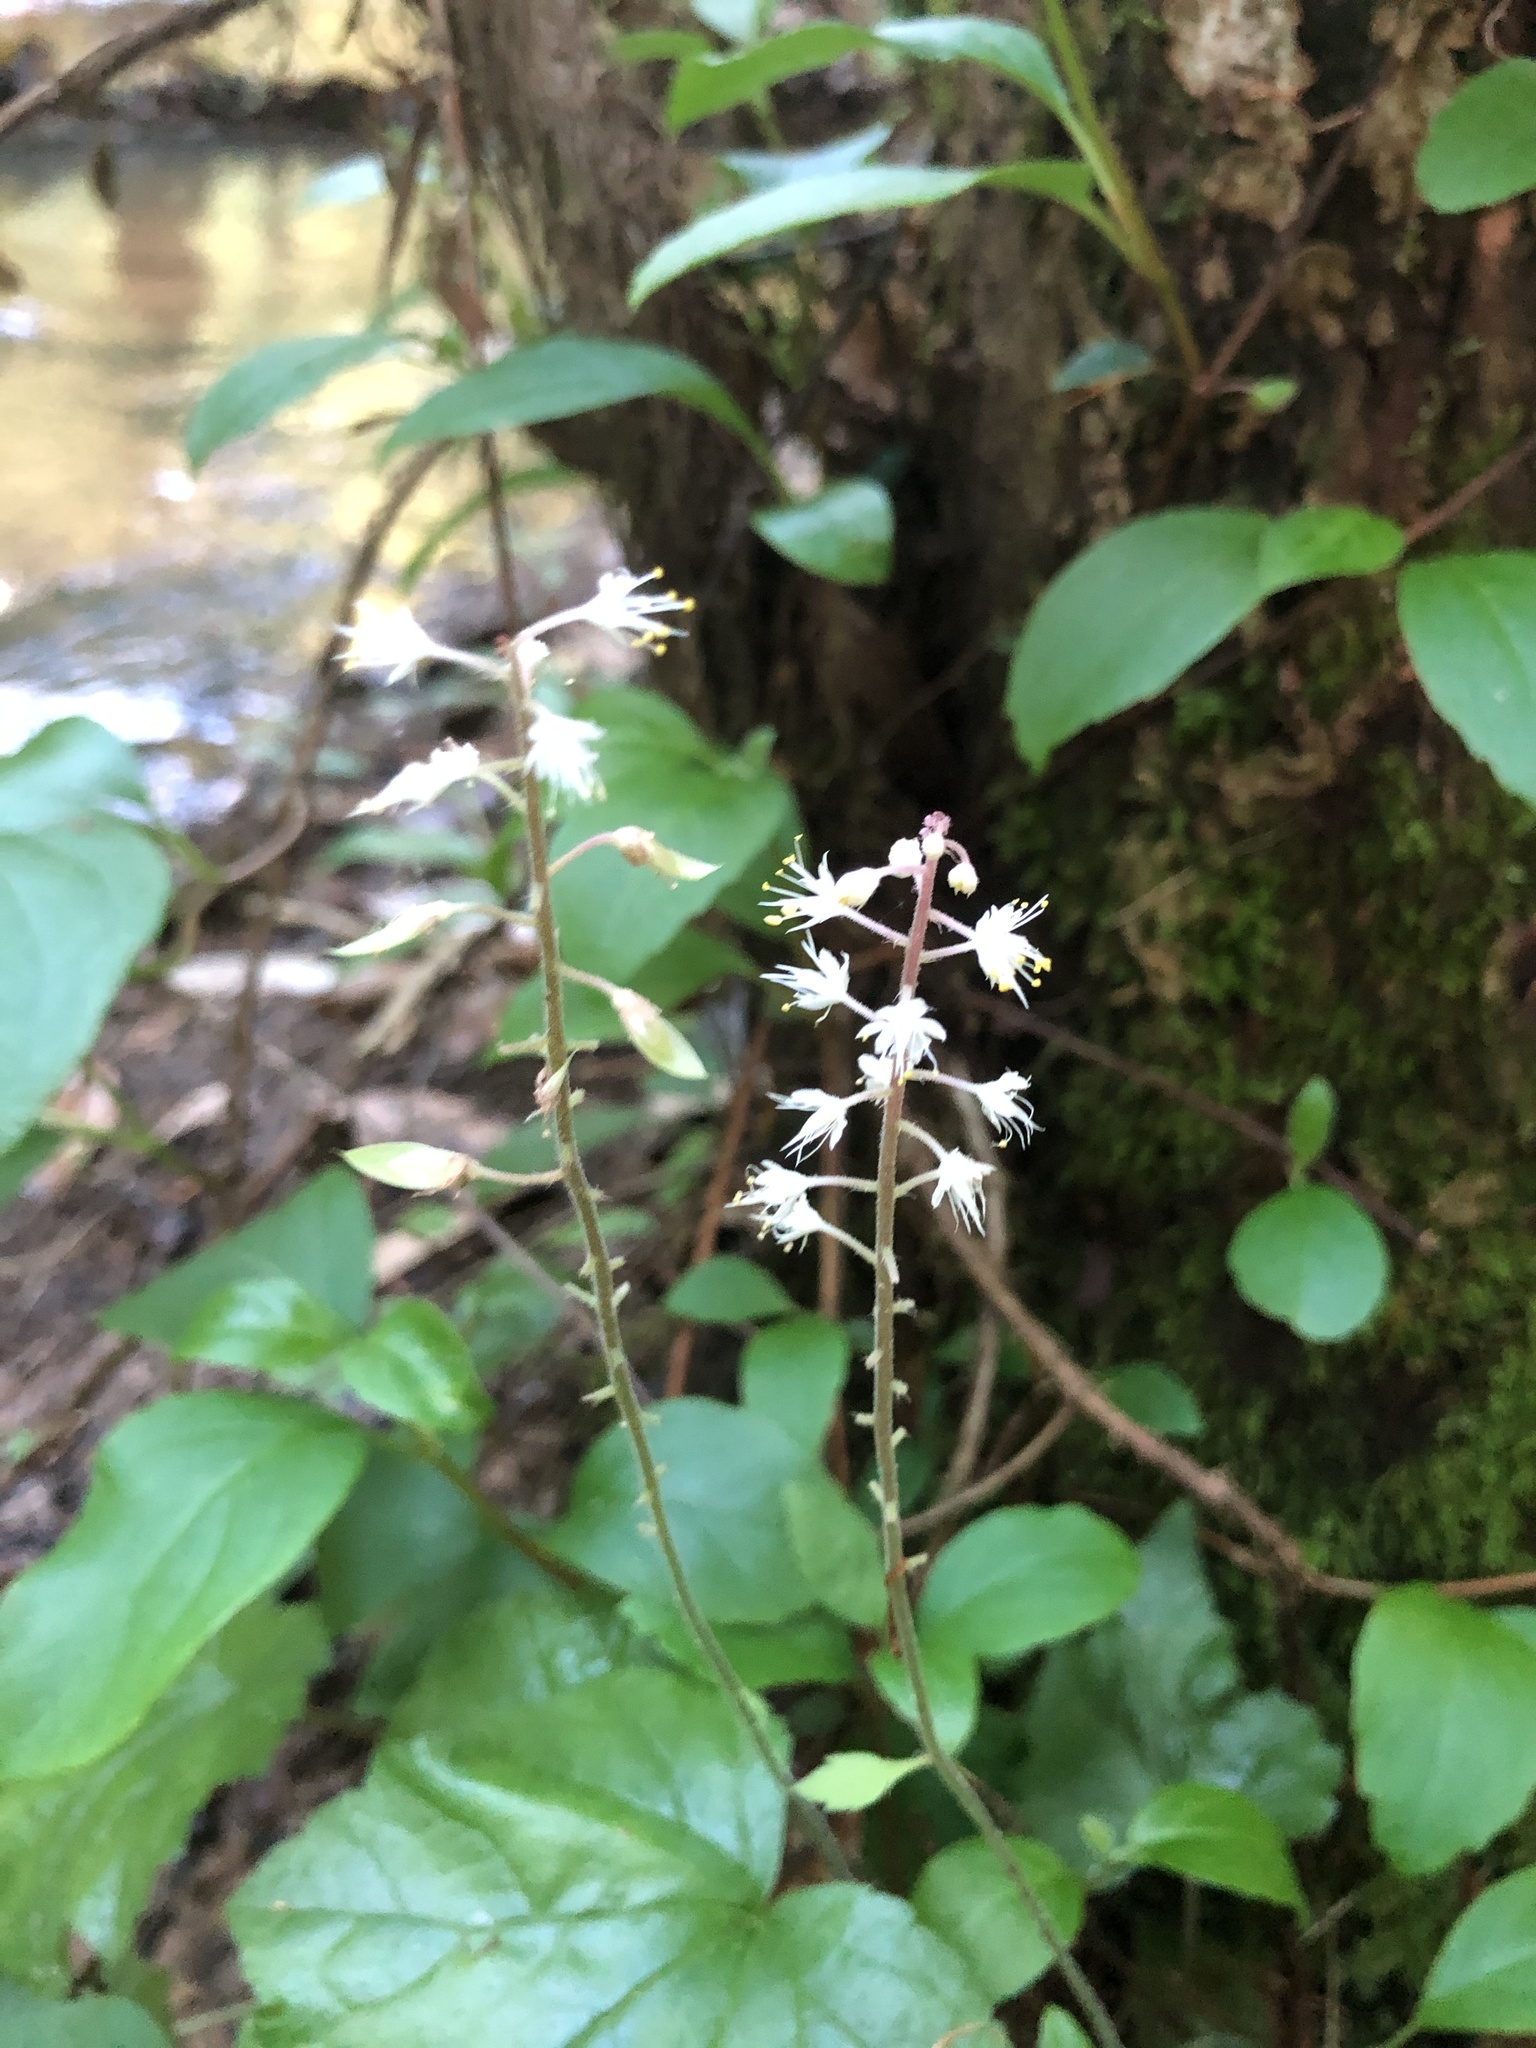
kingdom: Plantae
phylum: Tracheophyta
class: Magnoliopsida
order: Saxifragales
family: Saxifragaceae
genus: Tiarella
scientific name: Tiarella wherryi
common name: Tufted foamflower
